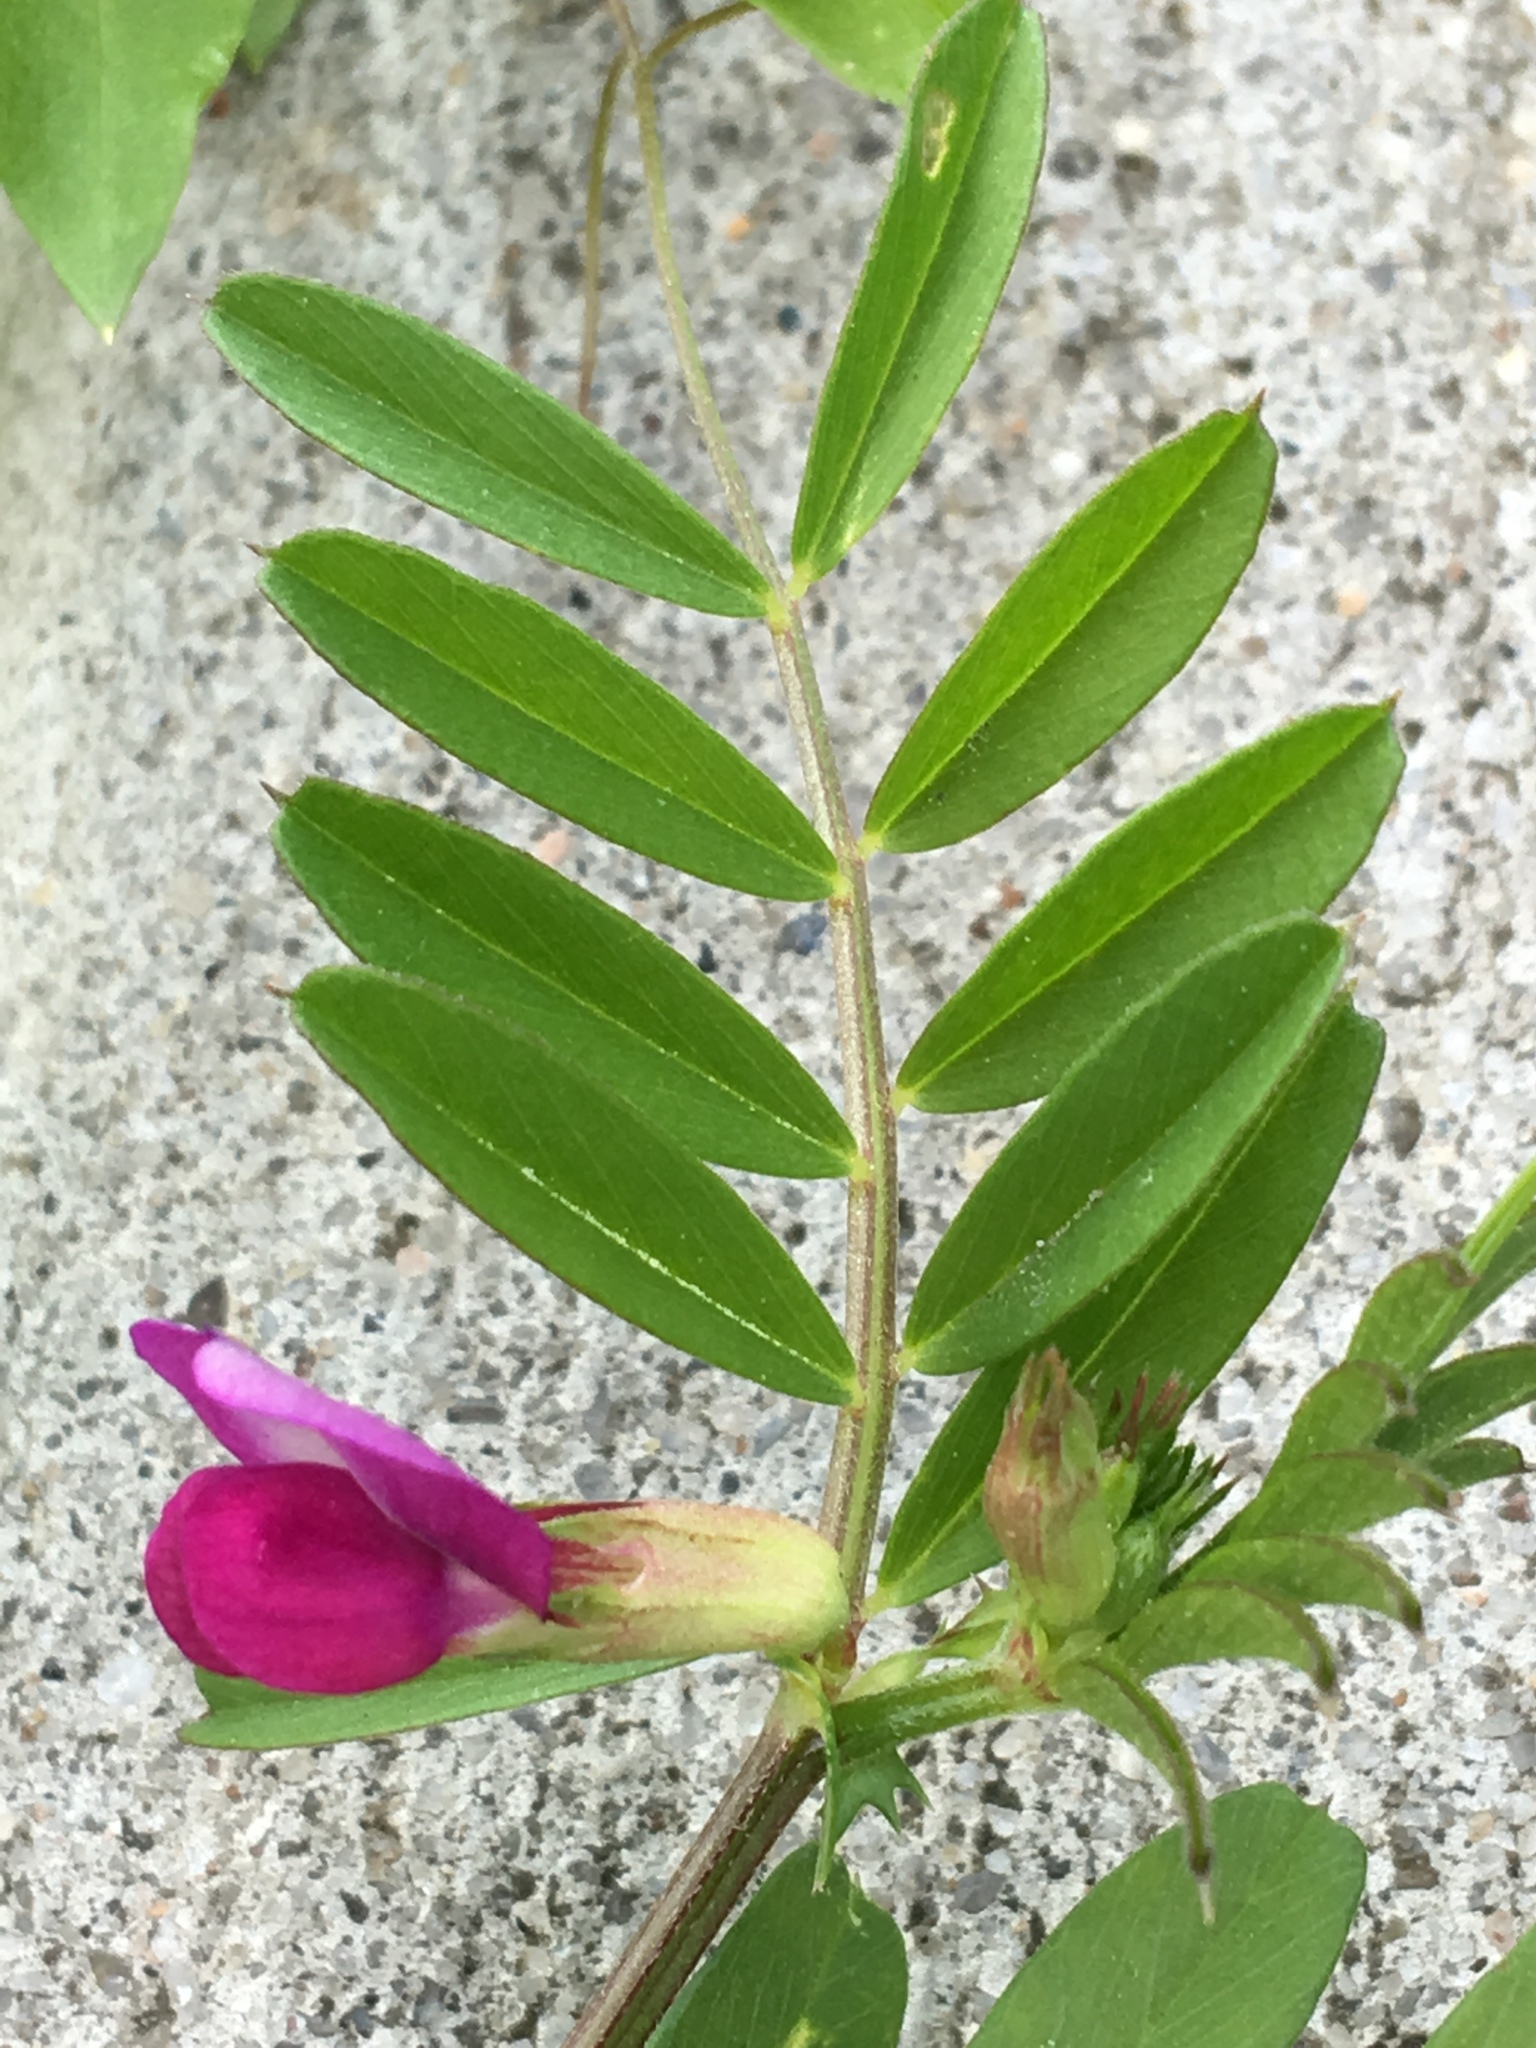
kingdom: Plantae
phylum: Tracheophyta
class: Magnoliopsida
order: Fabales
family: Fabaceae
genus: Vicia
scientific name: Vicia sativa
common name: Garden vetch
